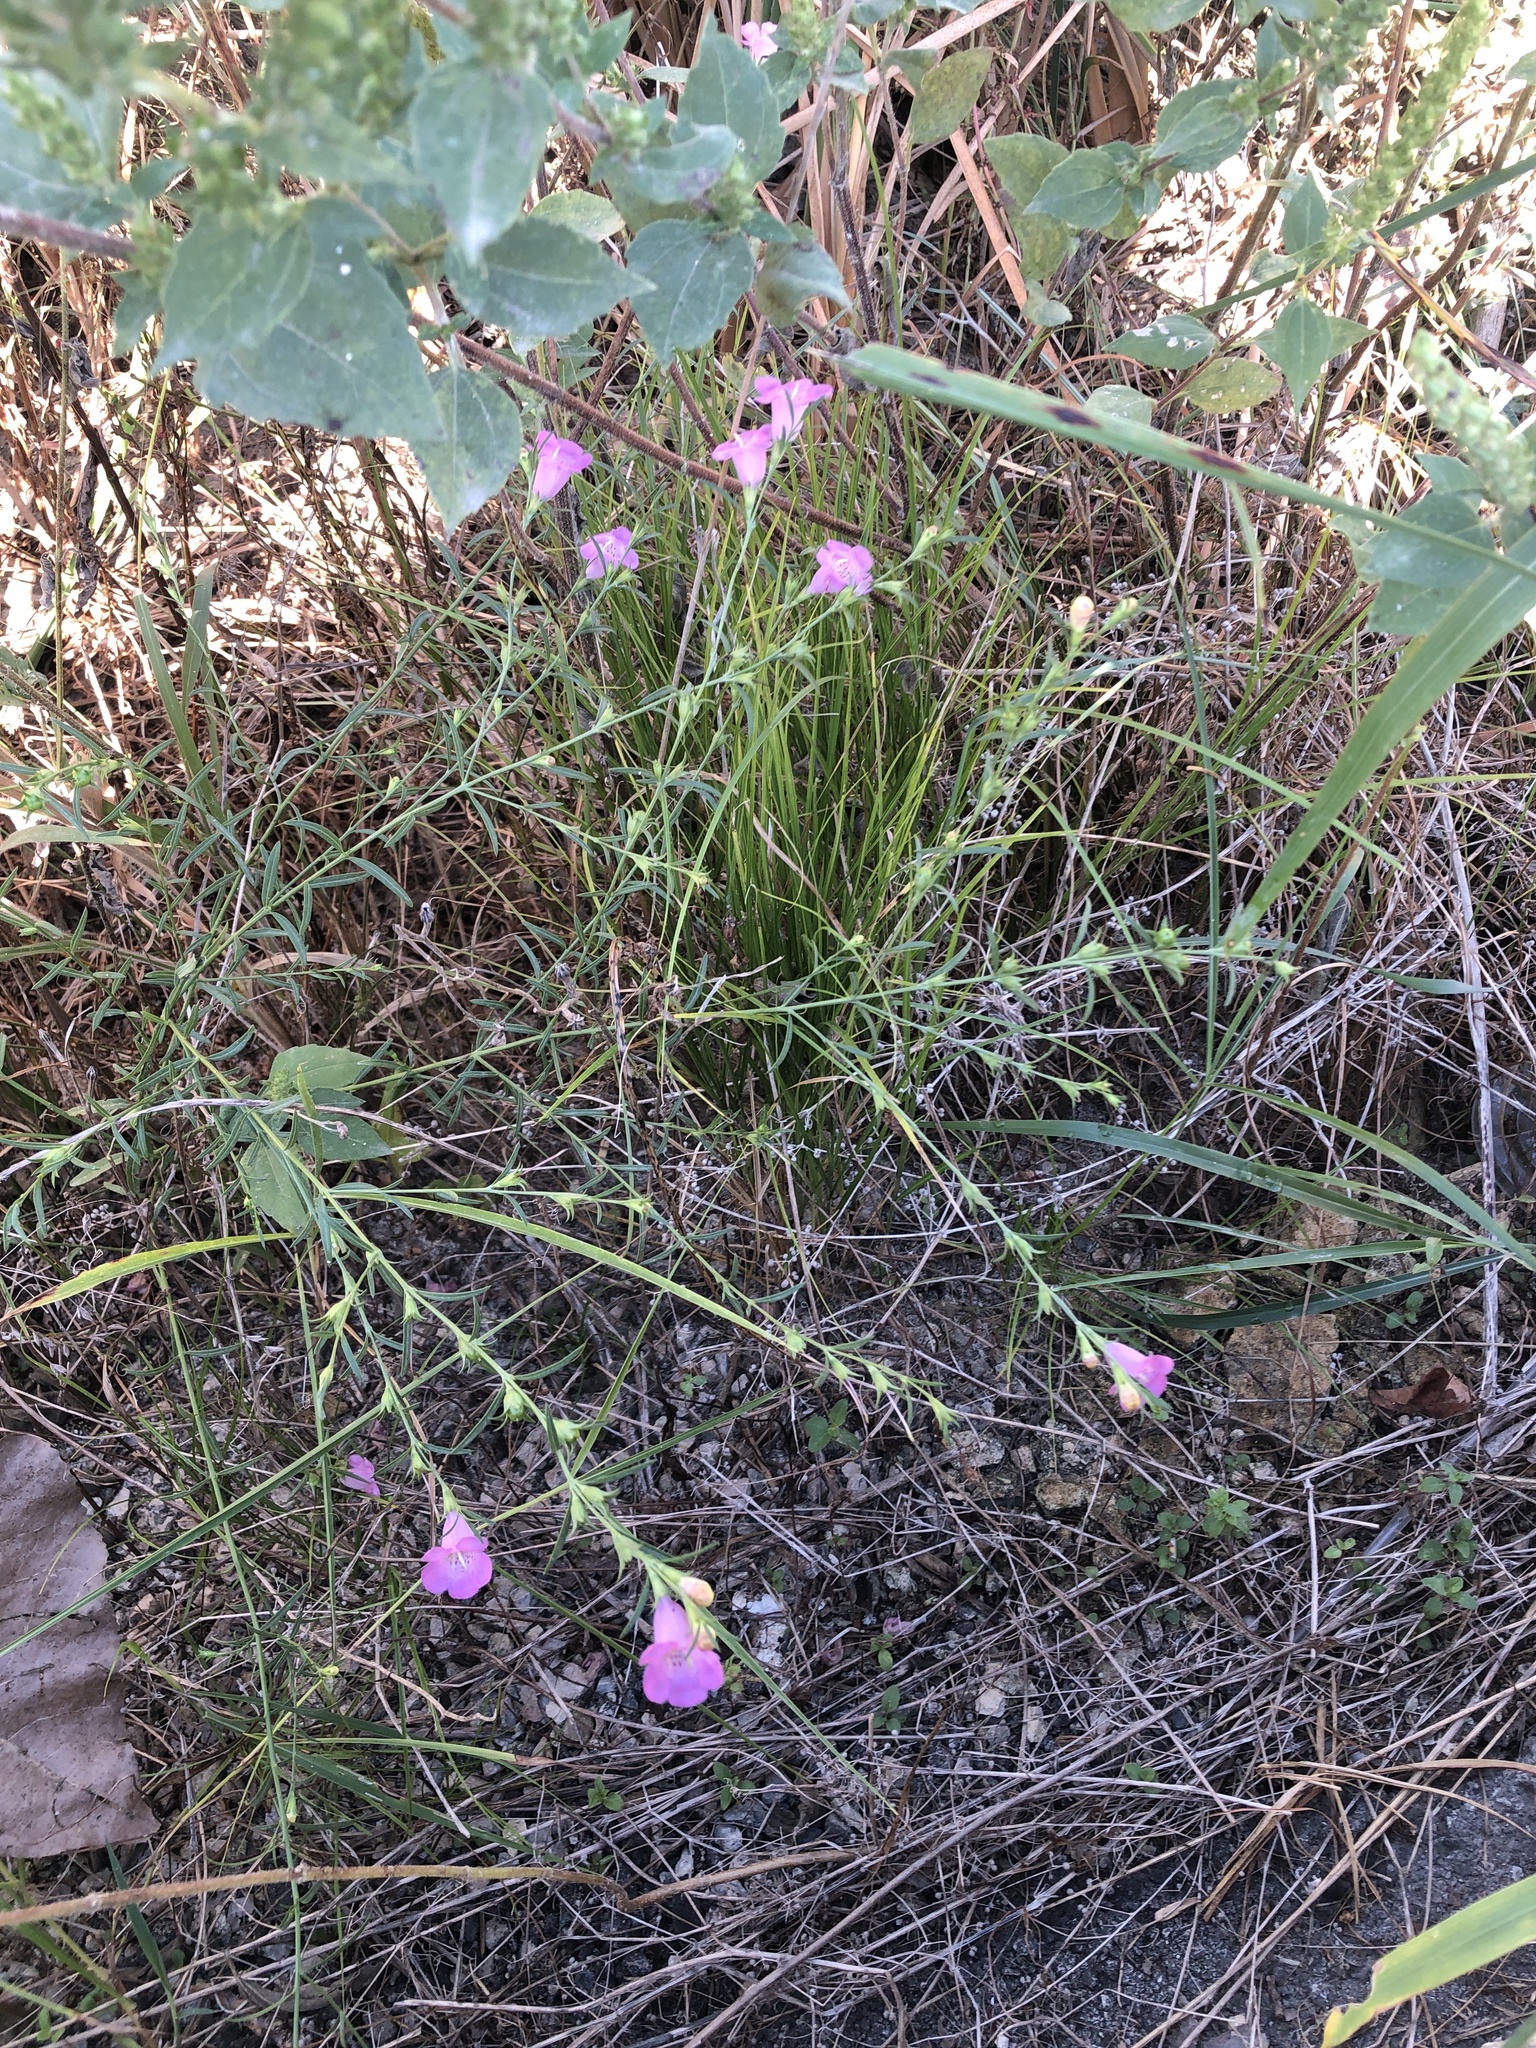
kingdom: Plantae
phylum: Tracheophyta
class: Magnoliopsida
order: Lamiales
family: Orobanchaceae
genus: Agalinis
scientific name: Agalinis heterophylla
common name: Prairie agalinis
